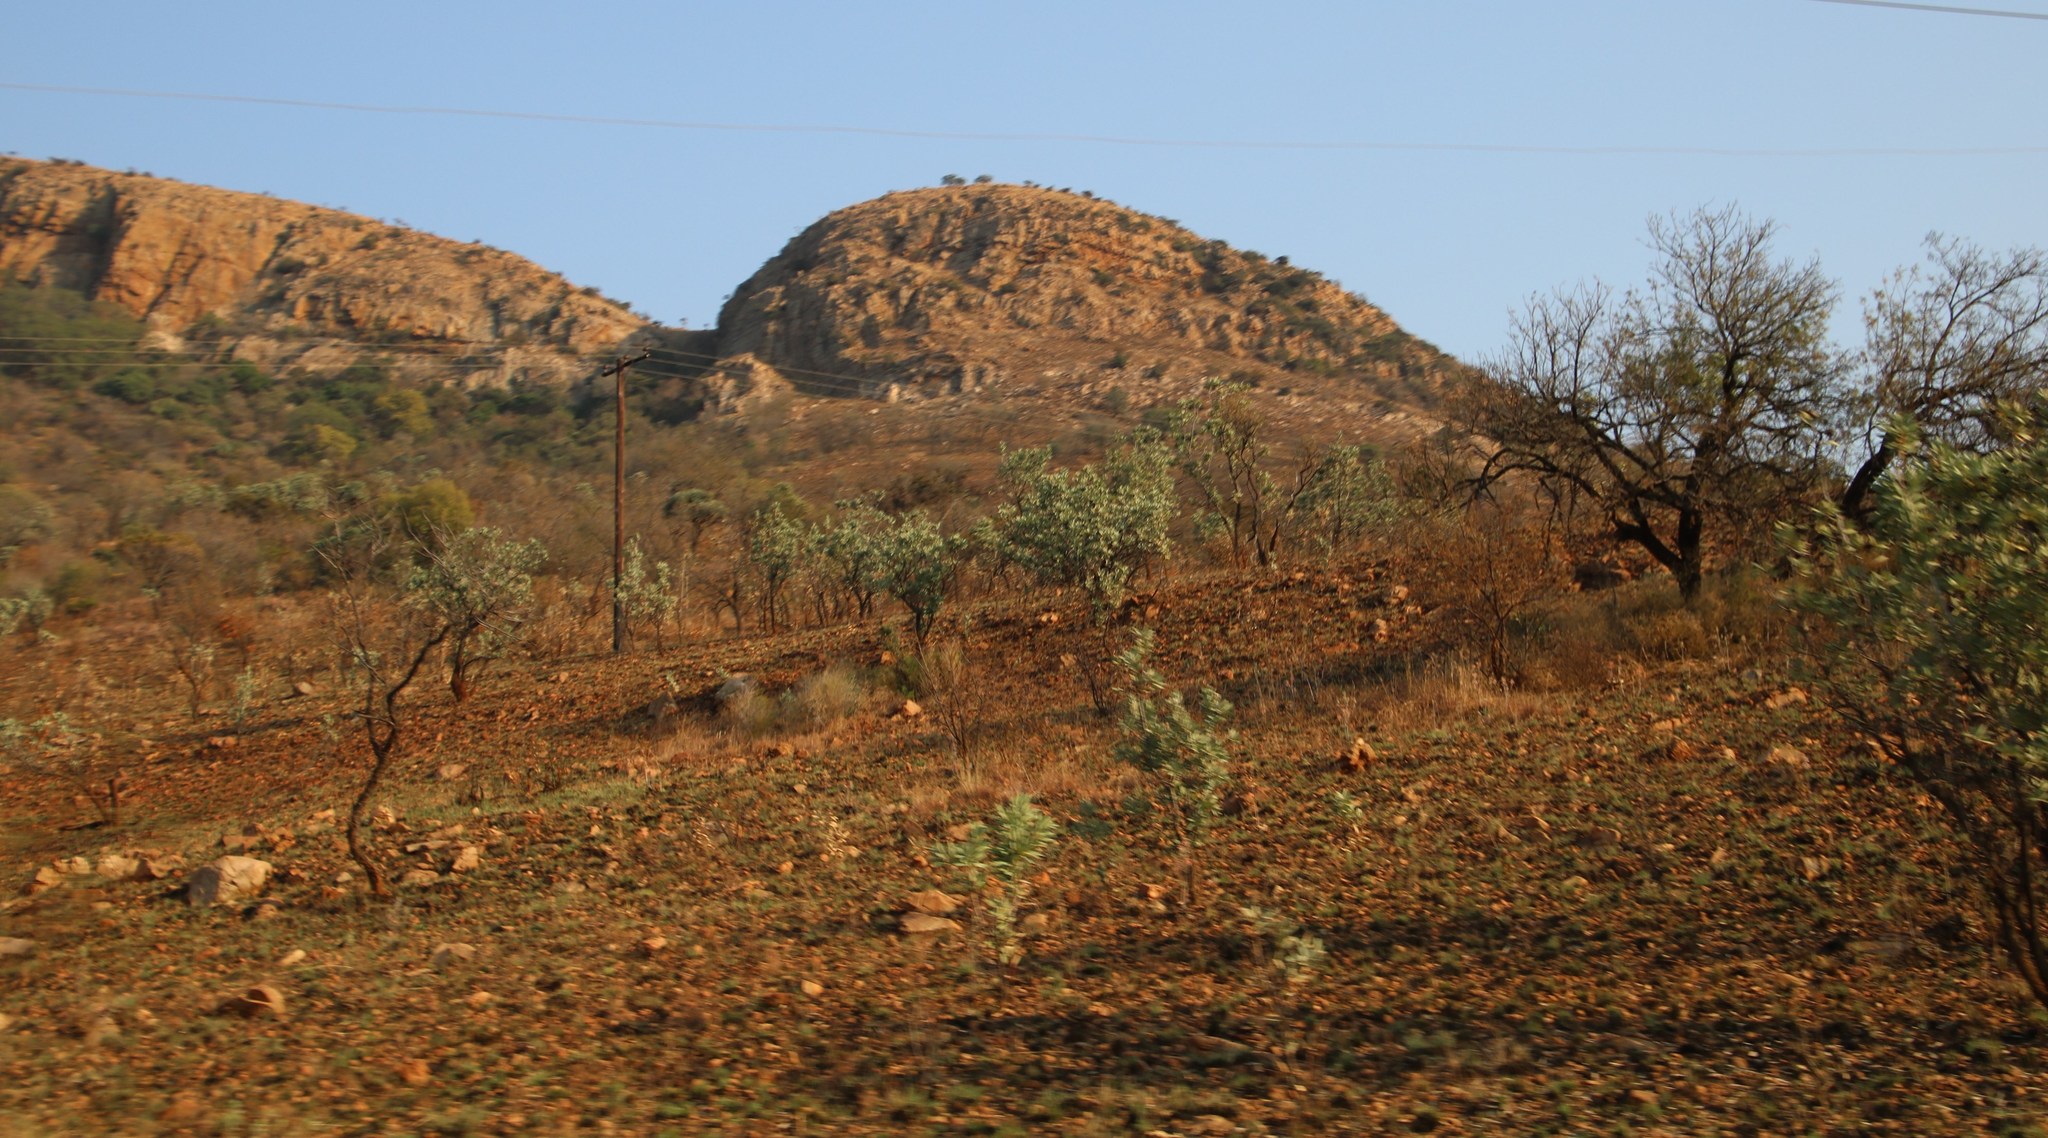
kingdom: Plantae
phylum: Tracheophyta
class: Magnoliopsida
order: Proteales
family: Proteaceae
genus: Protea
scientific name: Protea caffra
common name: Common sugarbush
